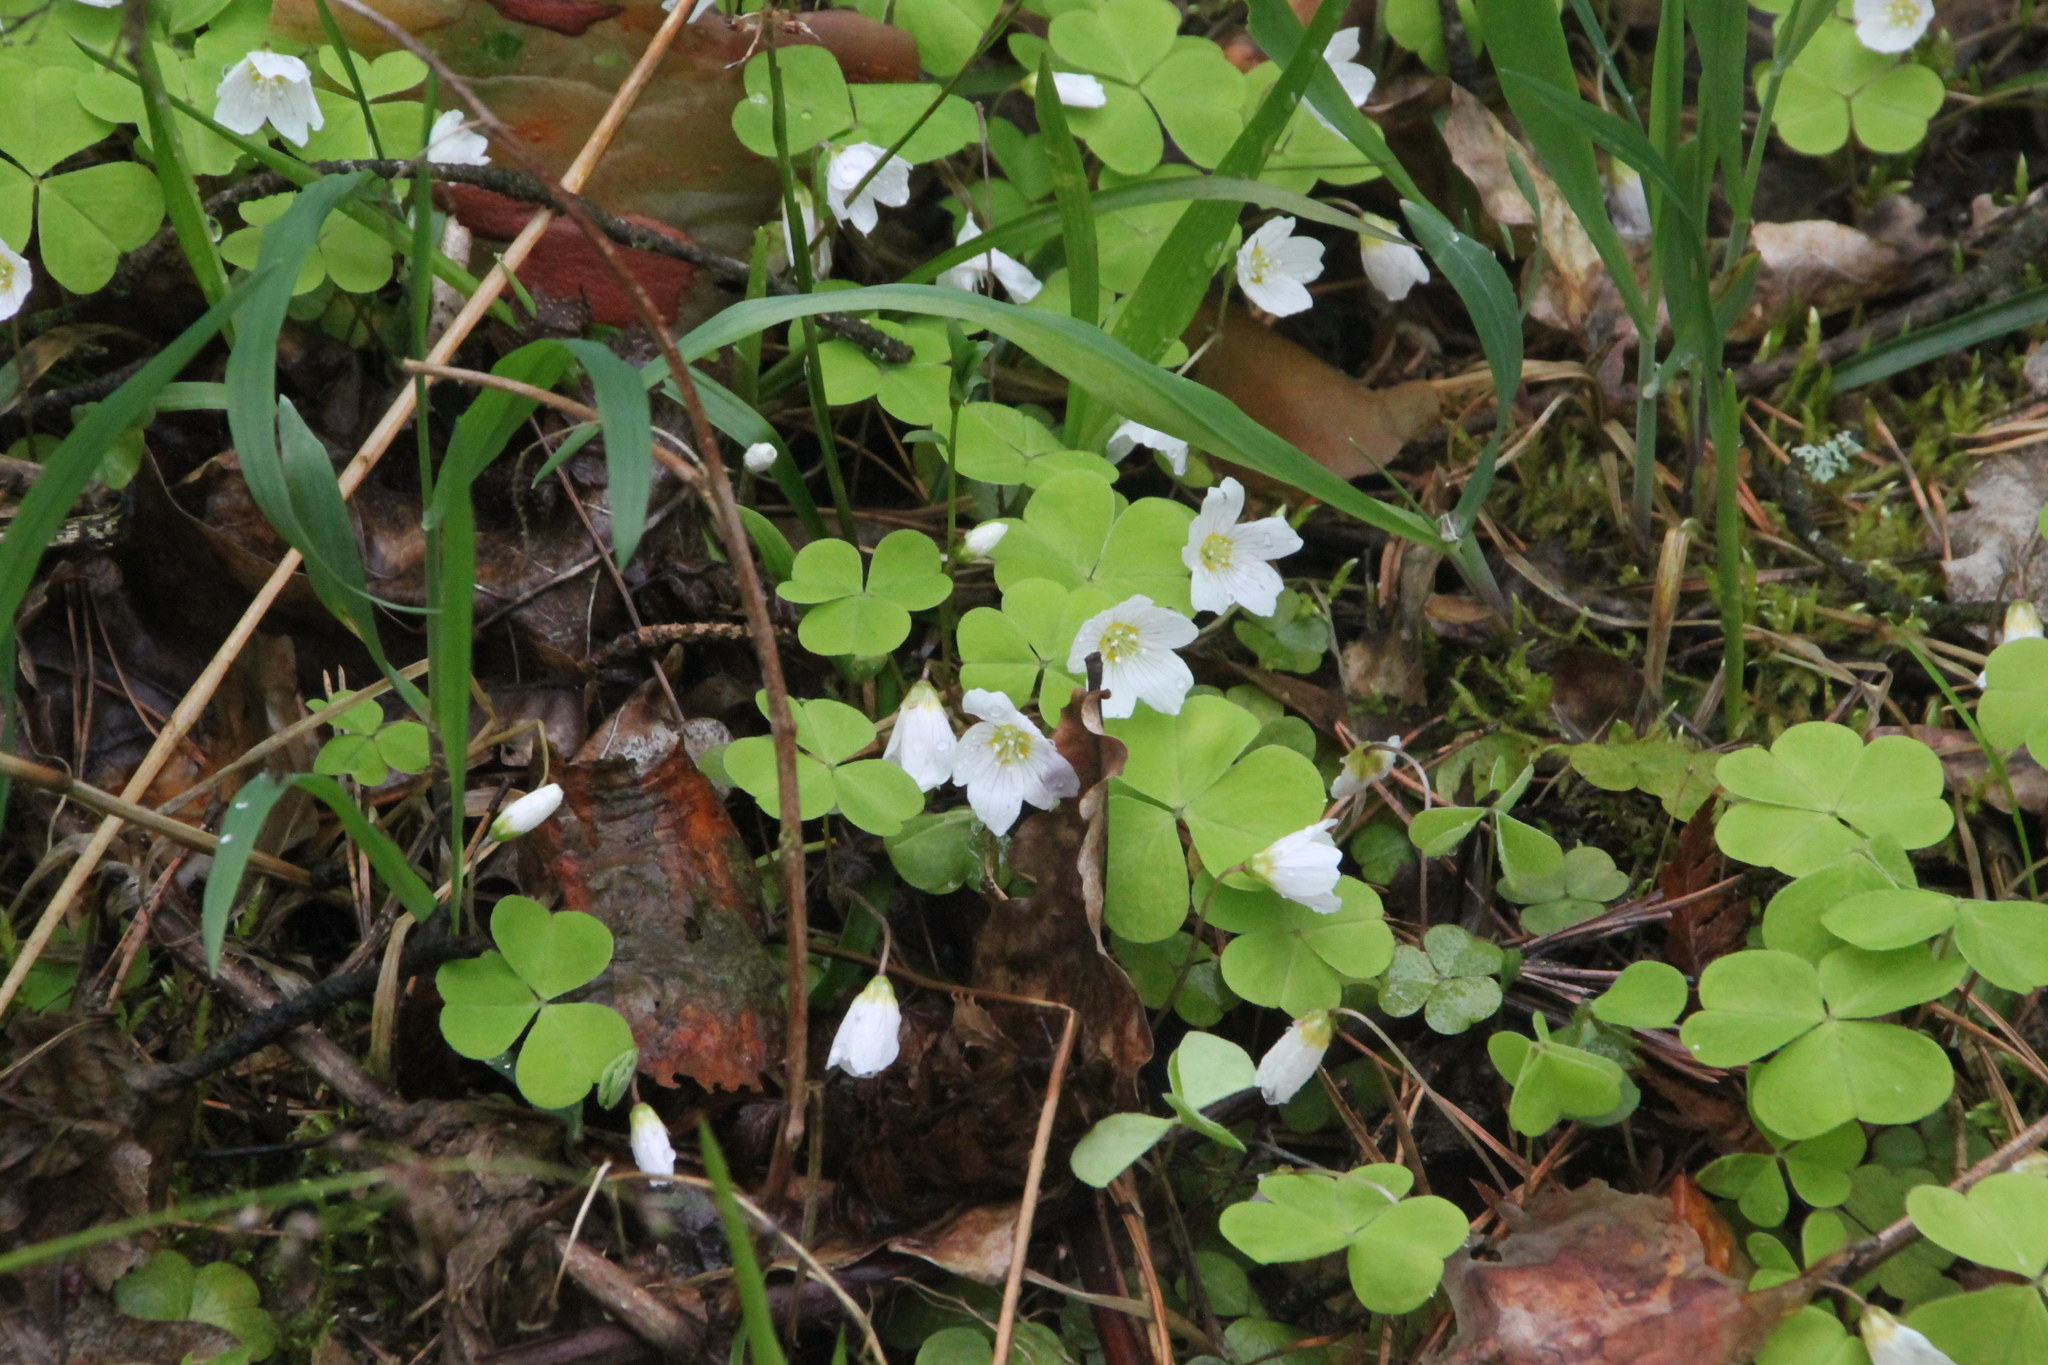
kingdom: Plantae
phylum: Tracheophyta
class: Magnoliopsida
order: Oxalidales
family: Oxalidaceae
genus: Oxalis
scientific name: Oxalis acetosella
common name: Wood-sorrel
